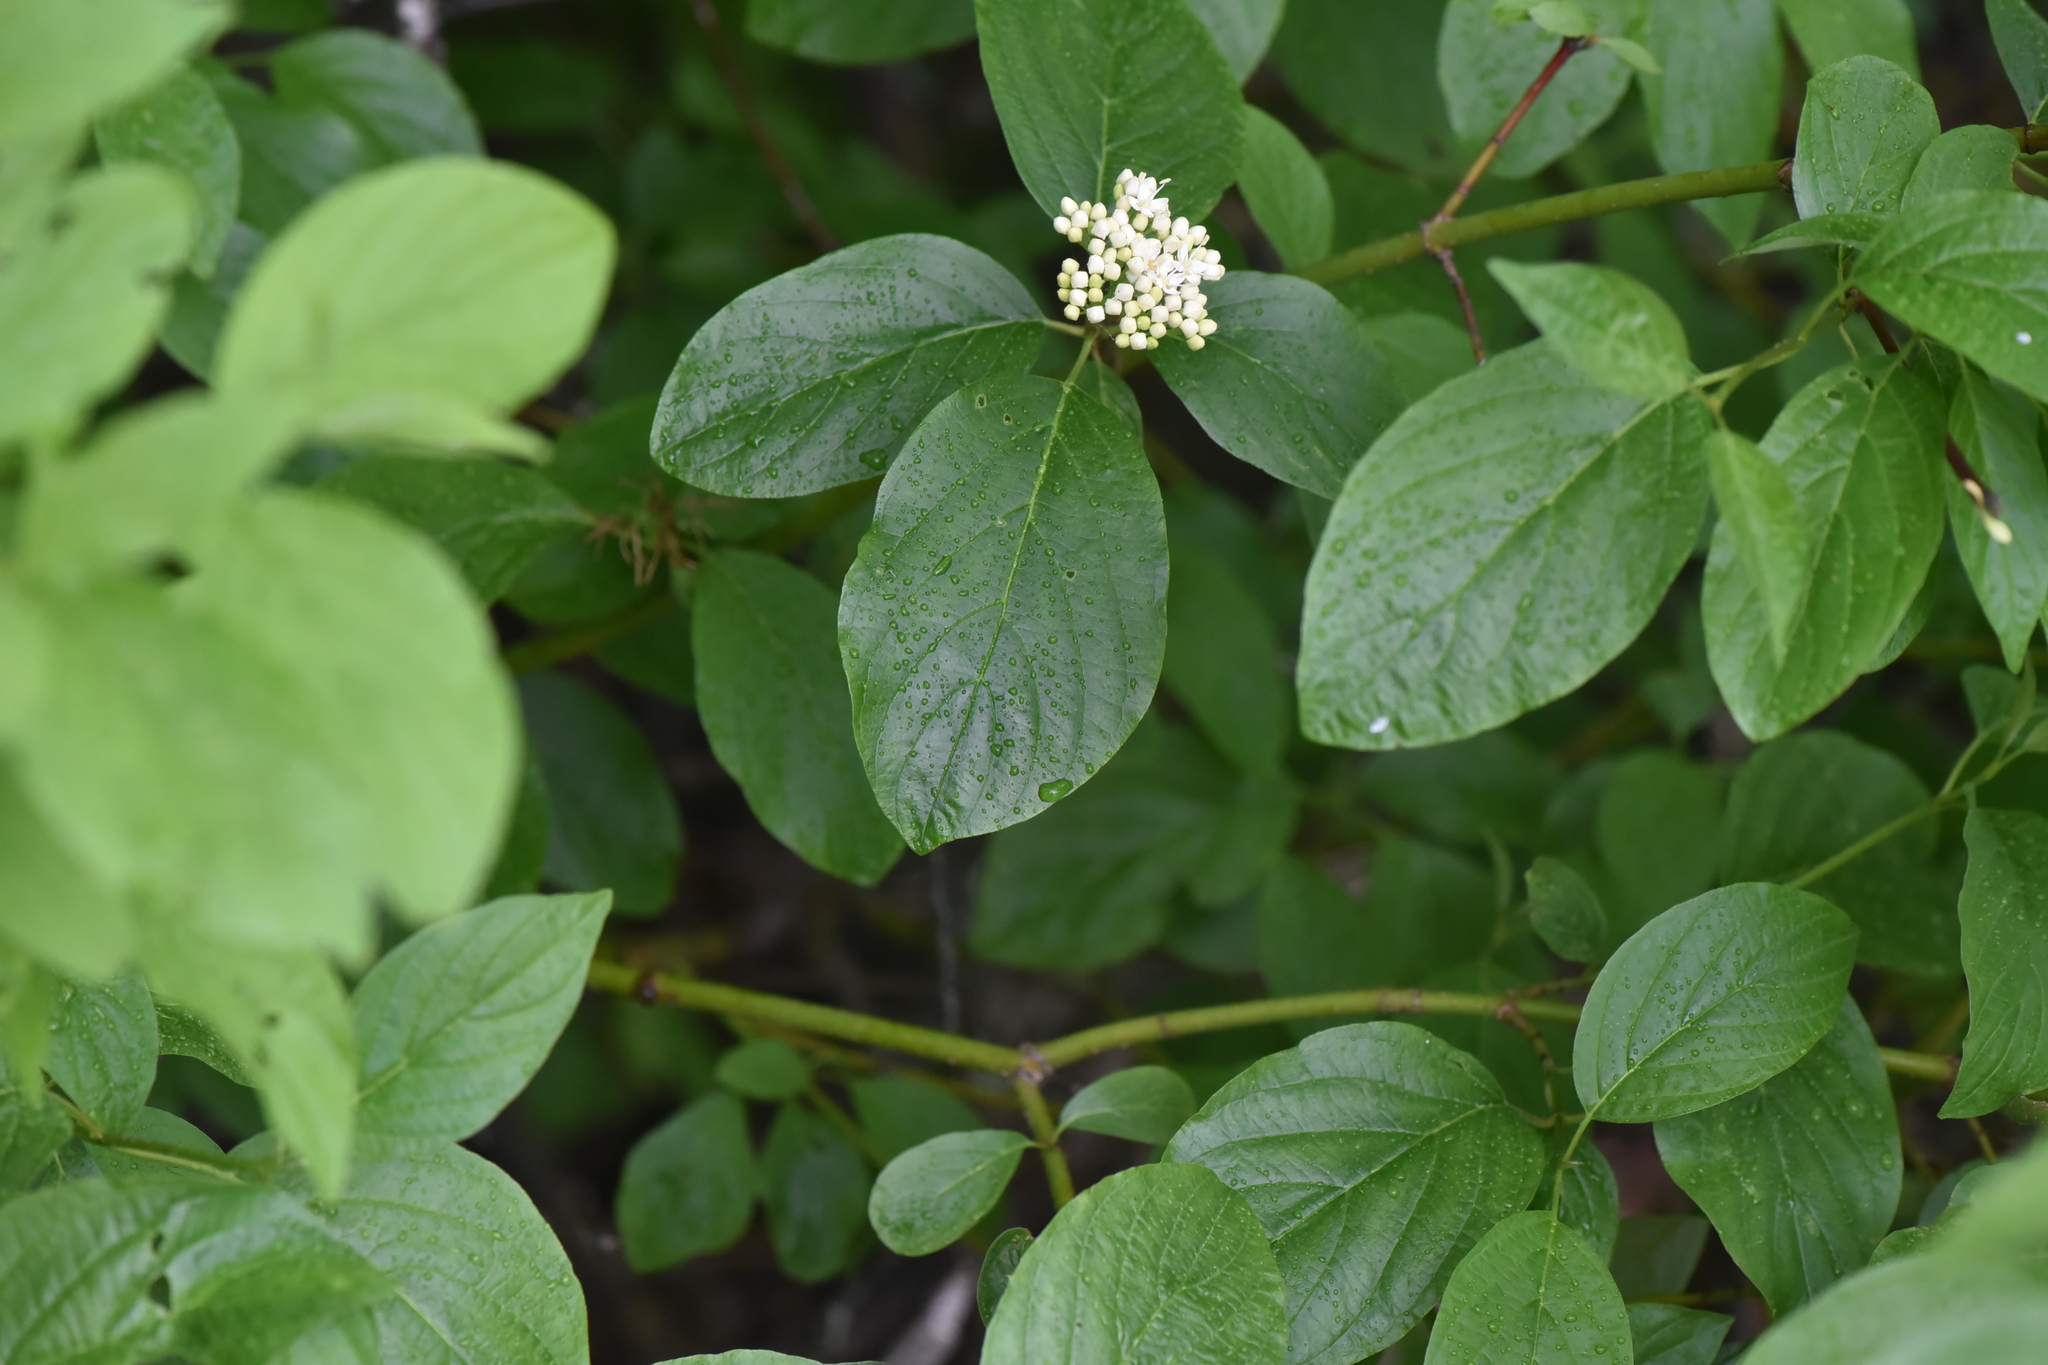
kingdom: Plantae
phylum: Tracheophyta
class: Magnoliopsida
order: Cornales
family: Cornaceae
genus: Cornus
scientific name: Cornus sericea
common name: Red-osier dogwood
